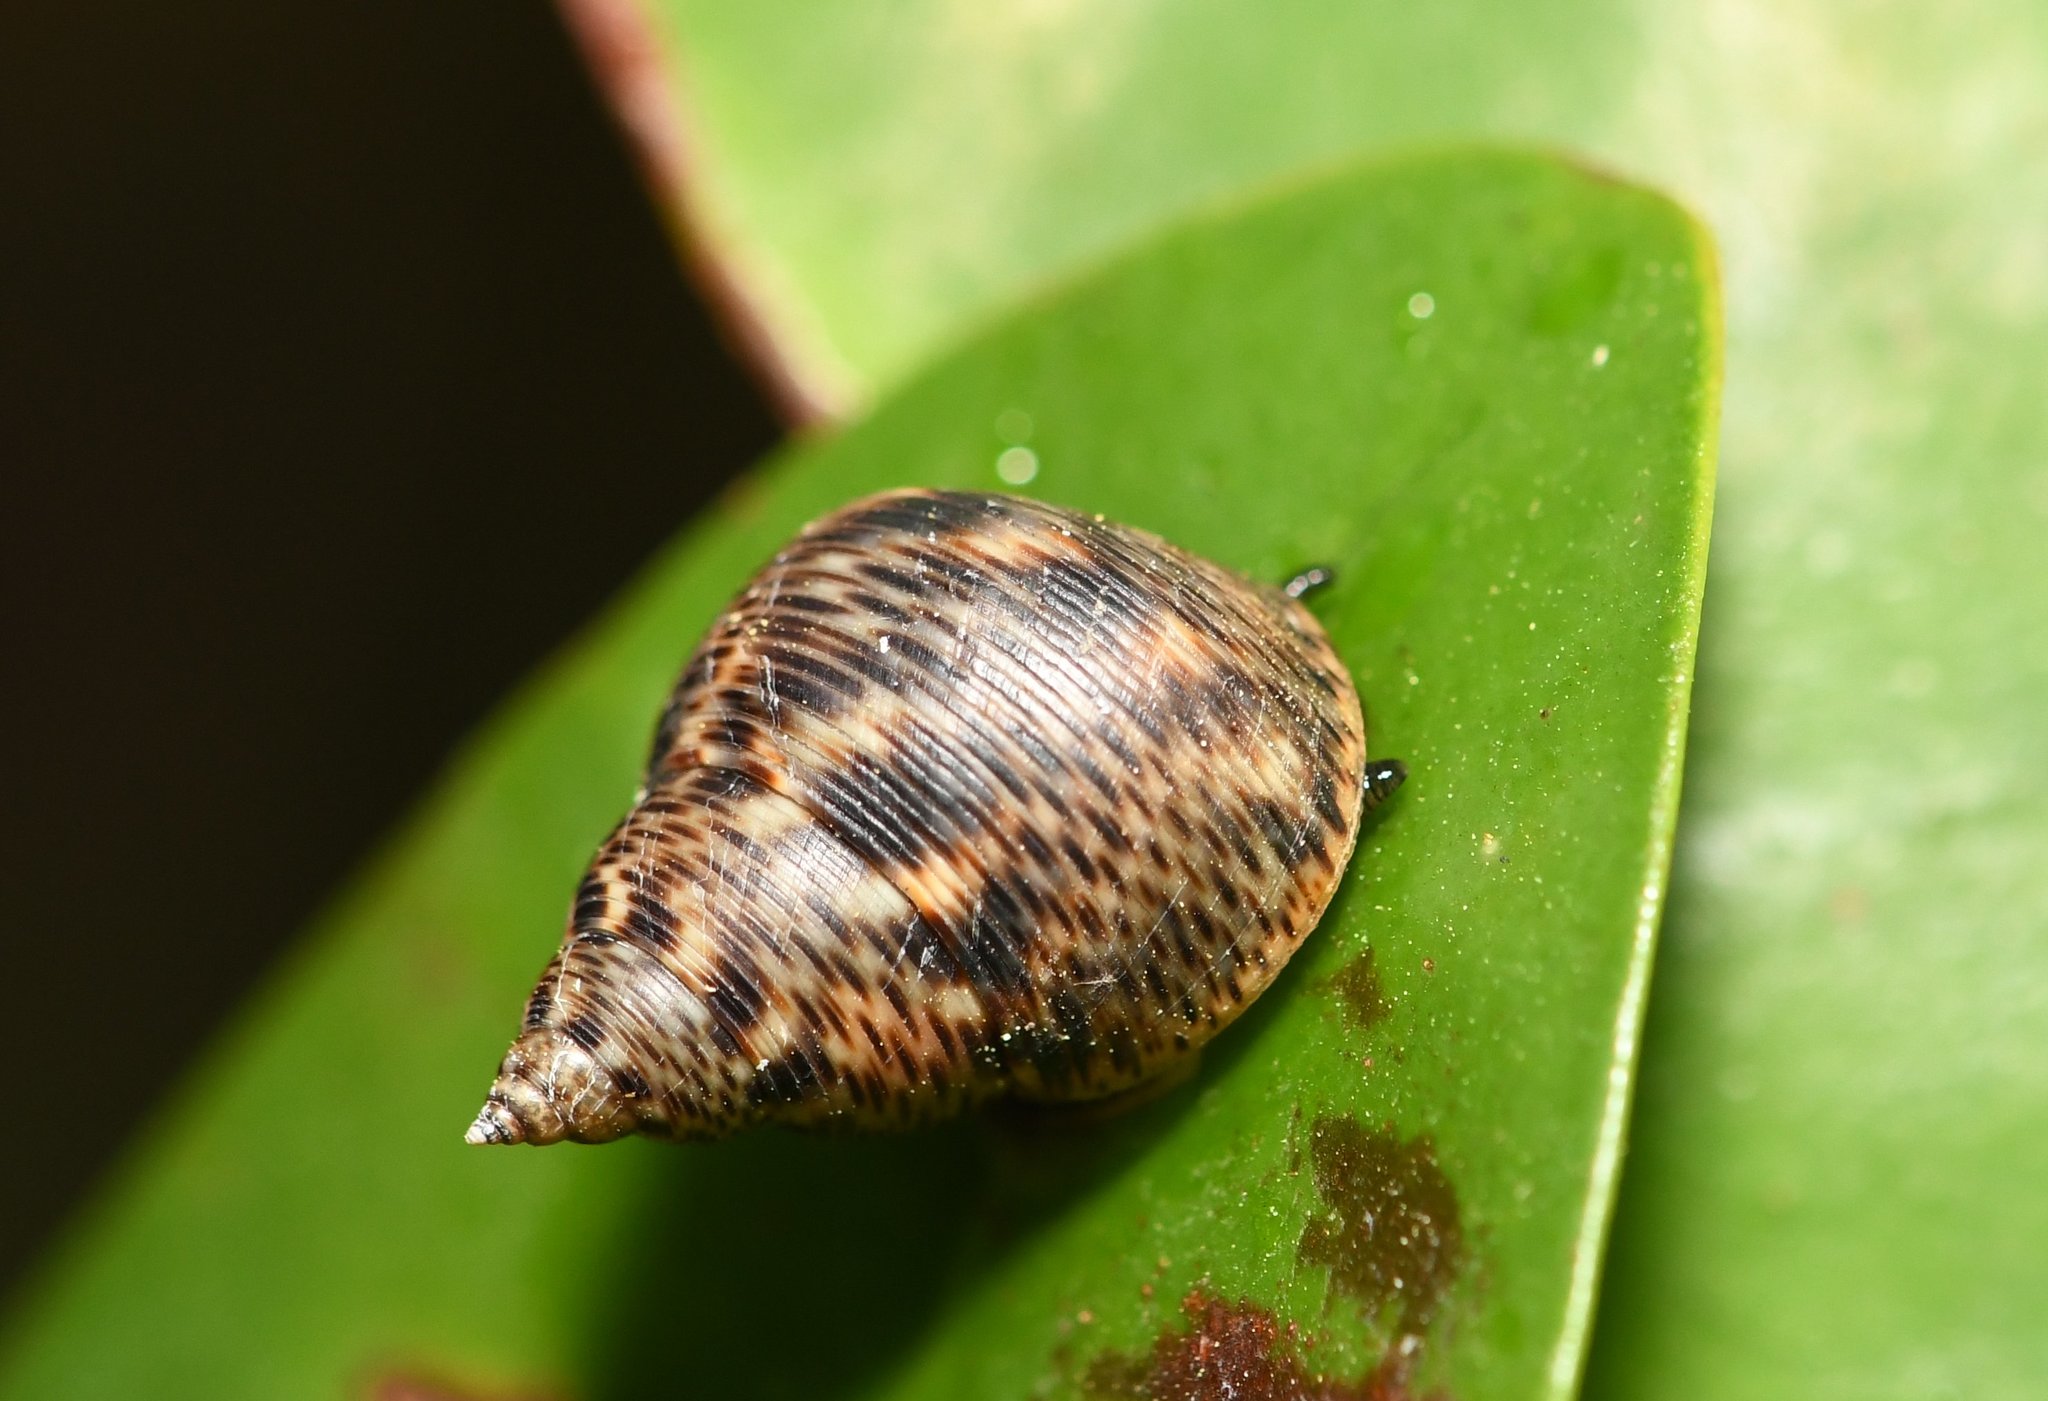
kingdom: Animalia
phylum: Mollusca
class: Gastropoda
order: Littorinimorpha
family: Littorinidae
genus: Littoraria
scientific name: Littoraria angulifera
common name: Mangrove periwinkle
